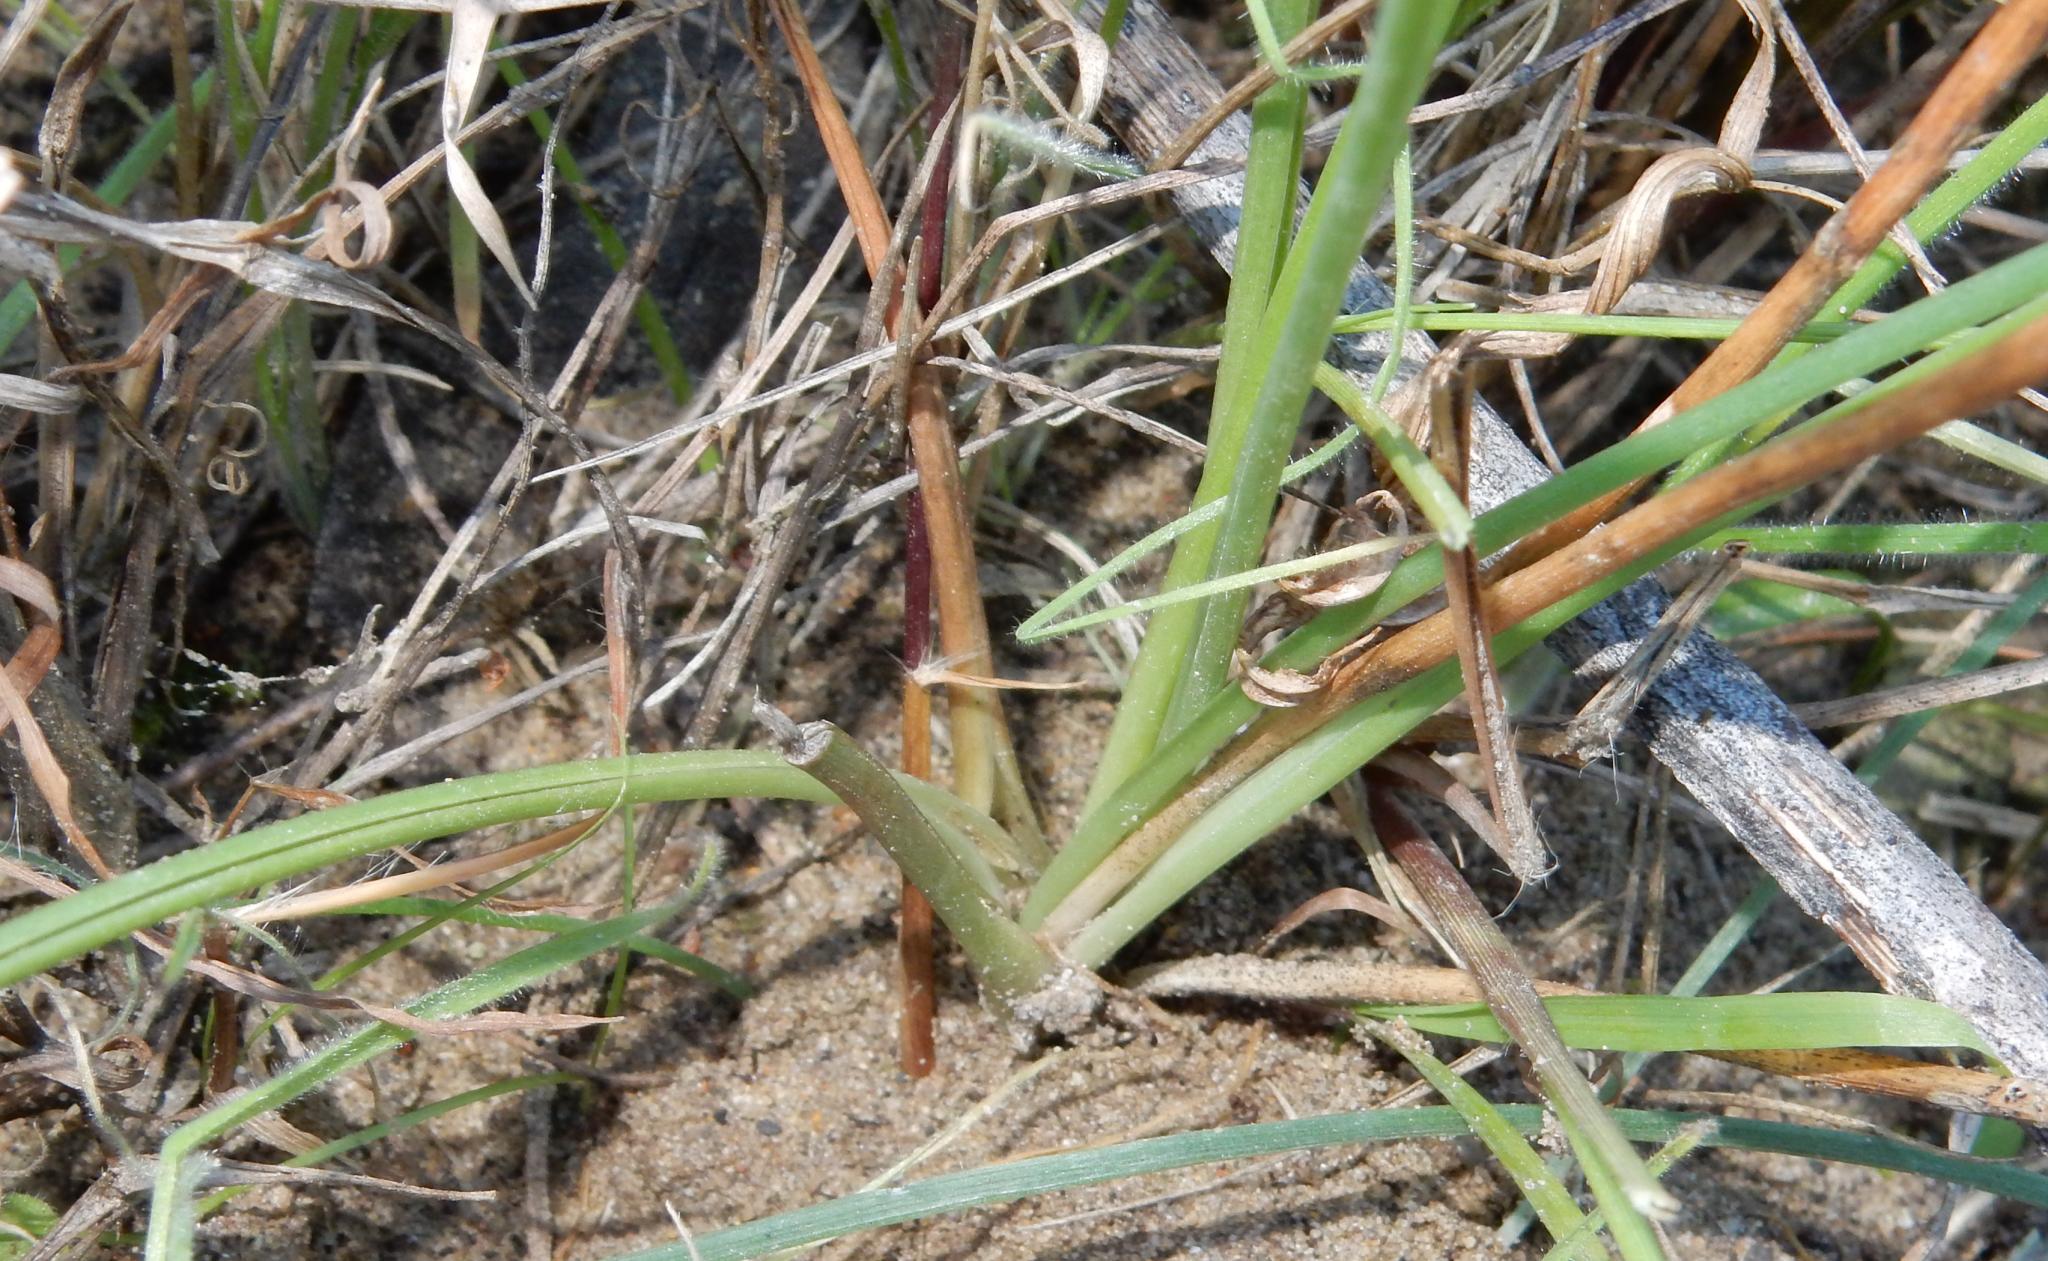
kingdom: Plantae
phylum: Tracheophyta
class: Liliopsida
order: Asparagales
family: Asparagaceae
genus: Albuca
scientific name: Albuca virens
